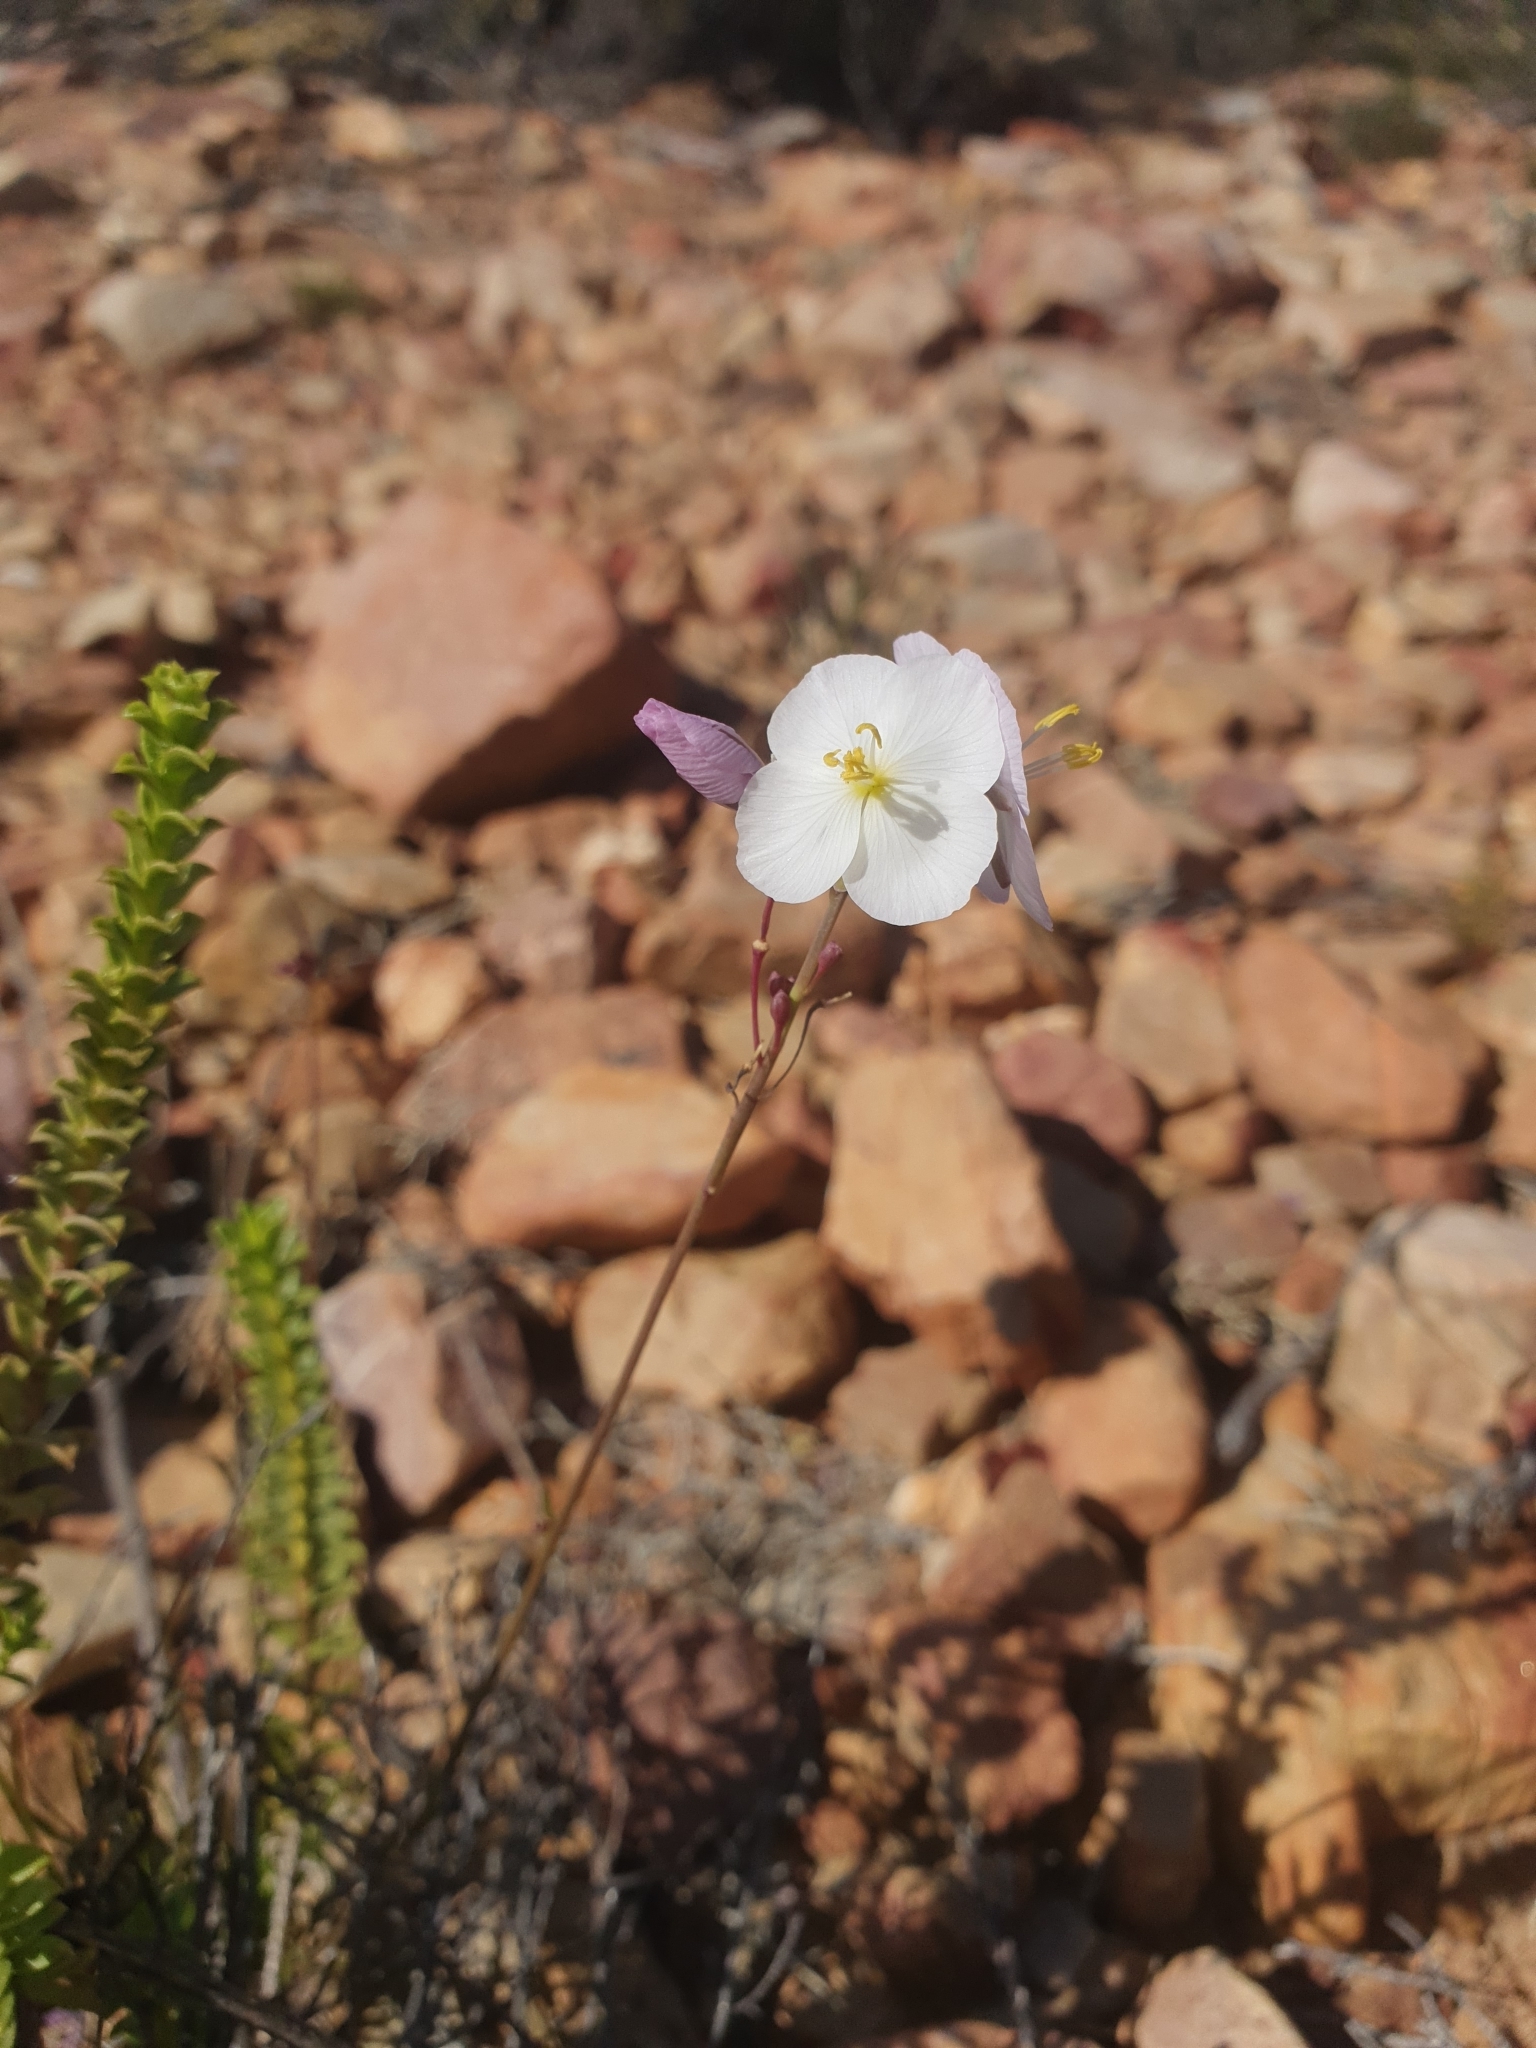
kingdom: Plantae
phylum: Tracheophyta
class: Magnoliopsida
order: Brassicales
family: Brassicaceae
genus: Heliophila
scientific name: Heliophila carnosa
